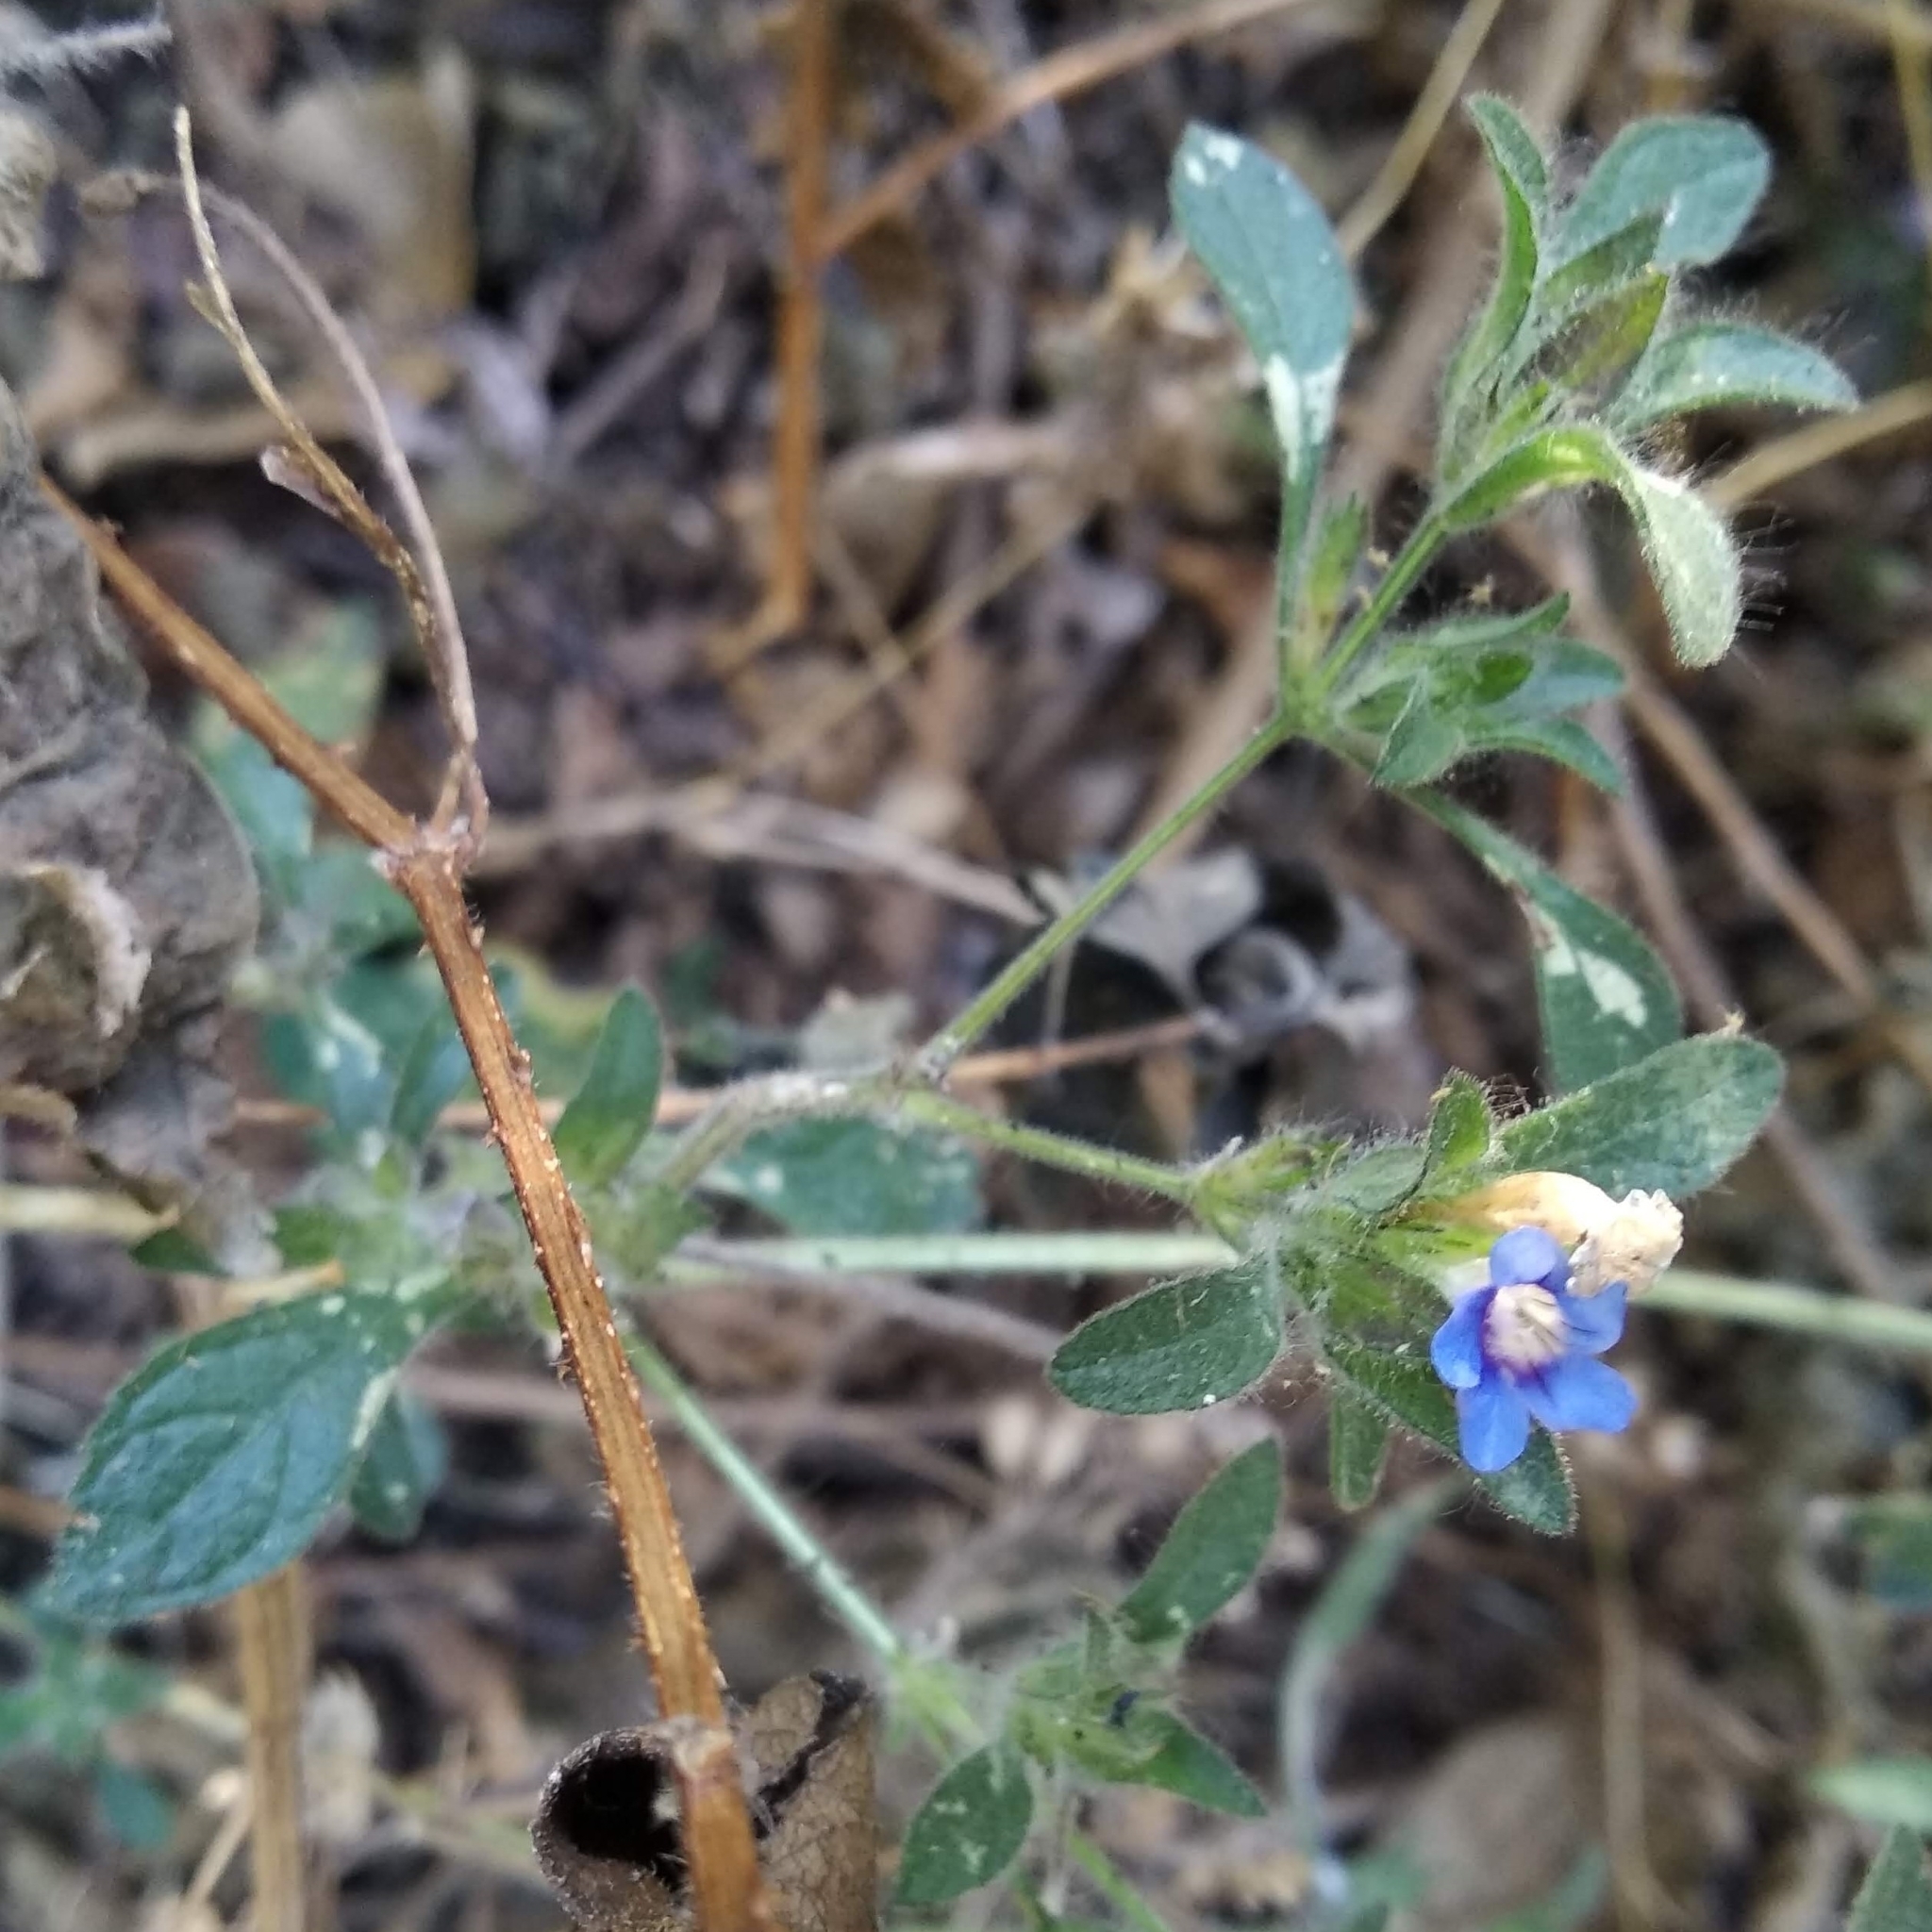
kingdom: Plantae
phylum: Tracheophyta
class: Magnoliopsida
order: Lamiales
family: Acanthaceae
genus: Strobilanthes
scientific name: Strobilanthes pavala
